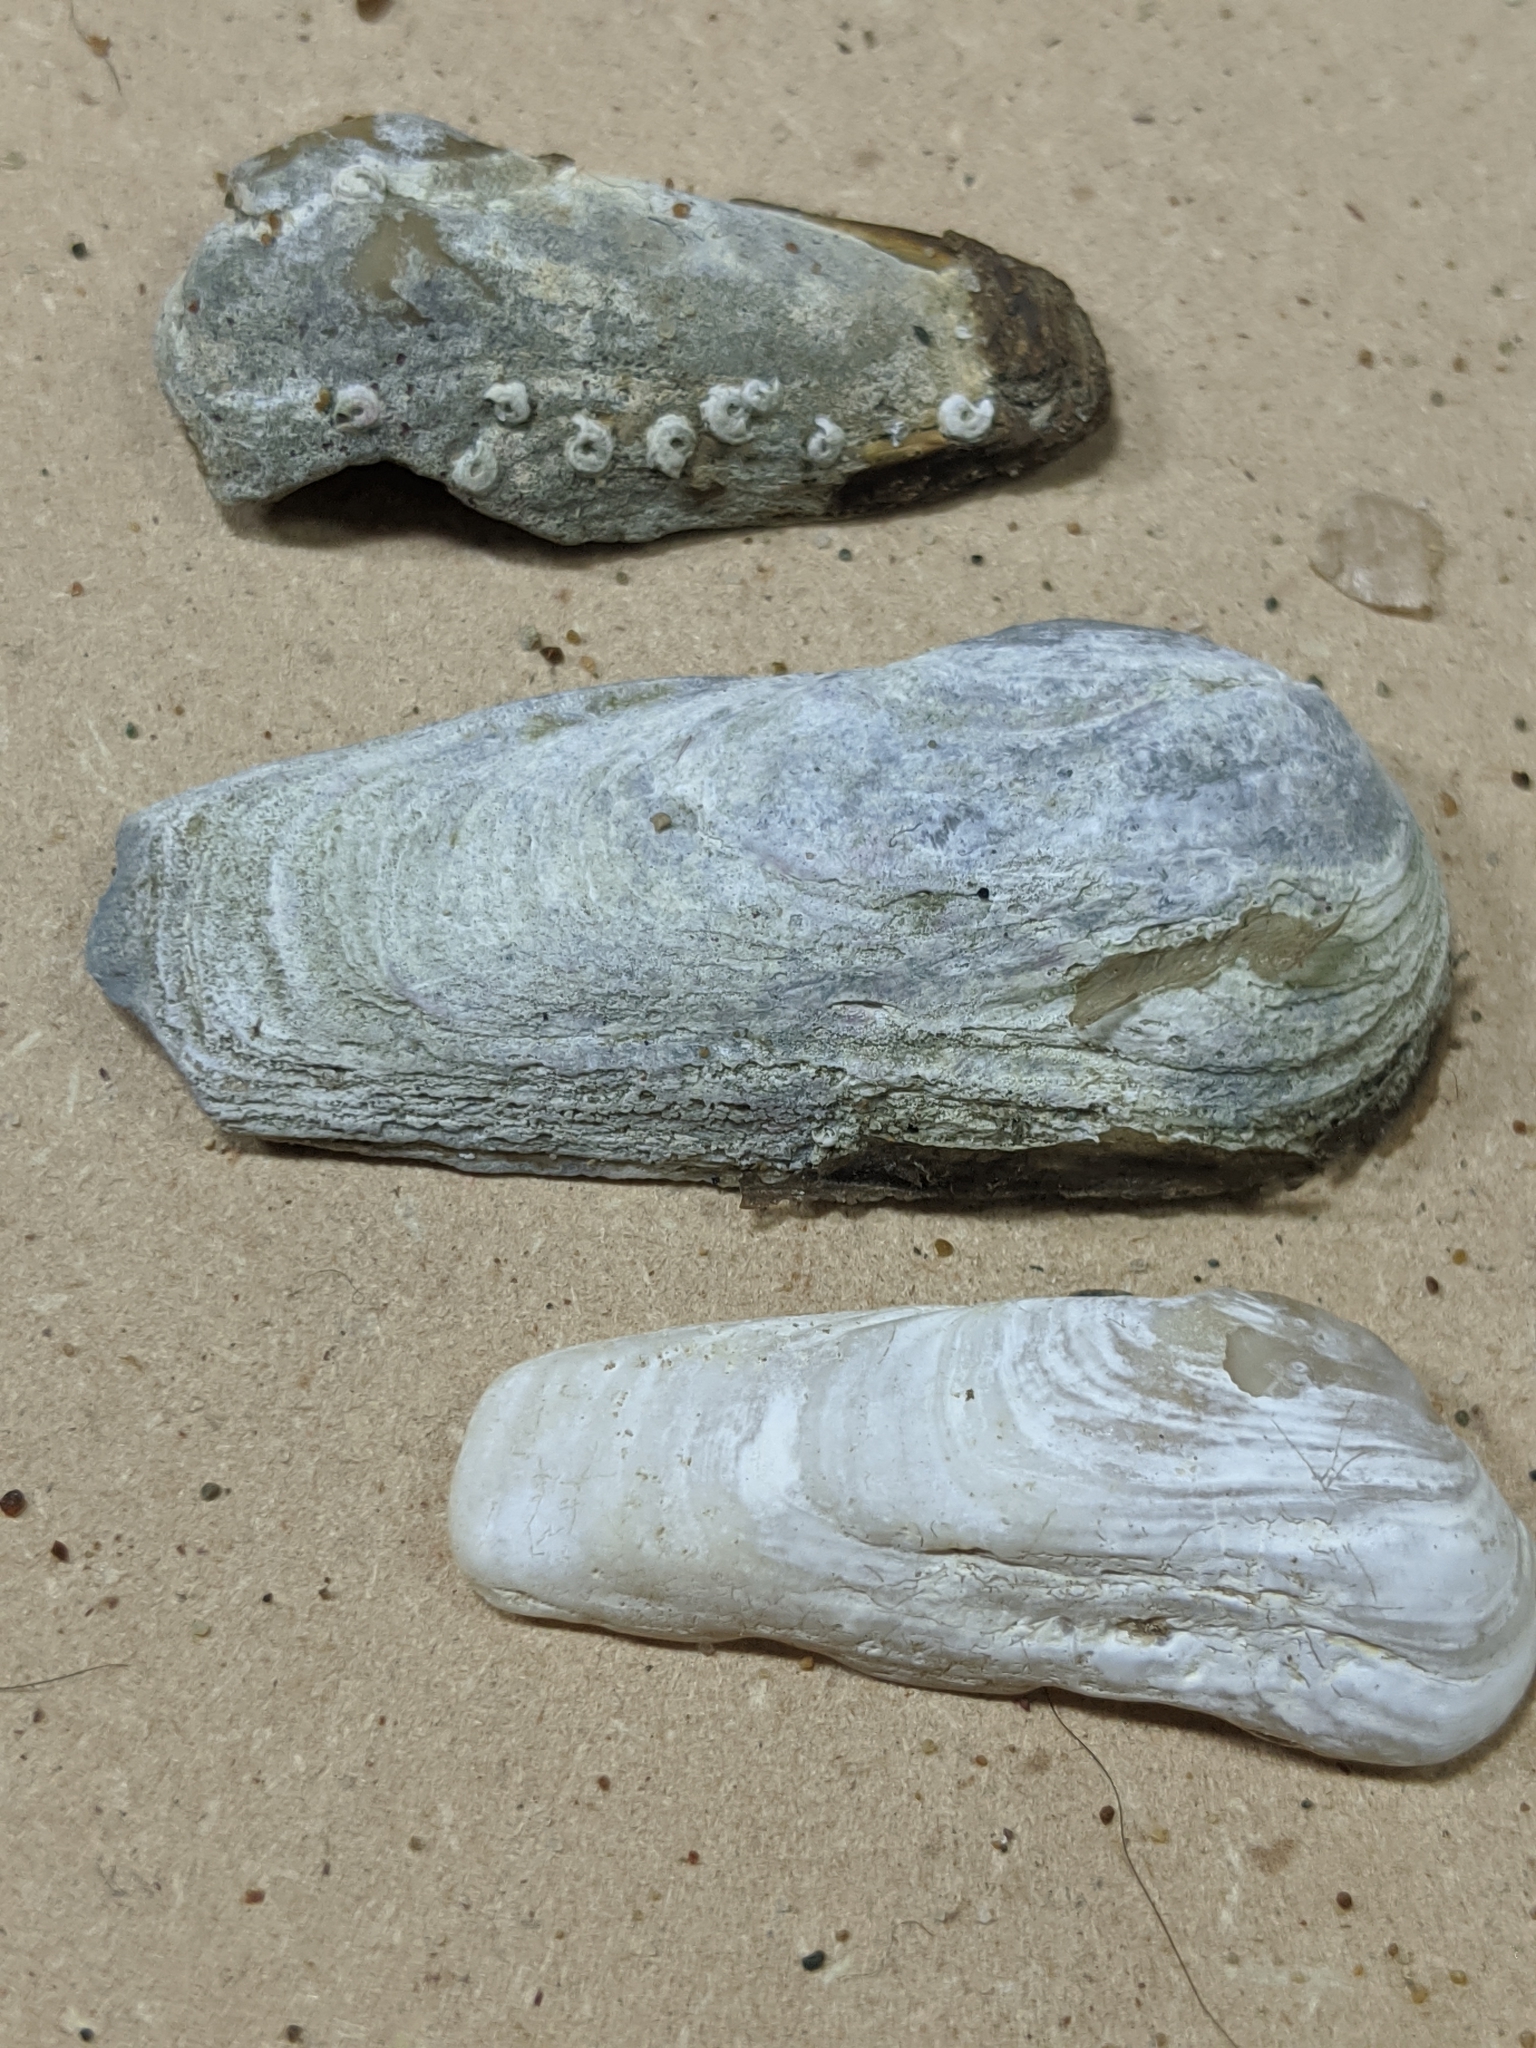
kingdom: Animalia
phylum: Mollusca
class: Bivalvia
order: Adapedonta
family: Hiatellidae
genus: Hiatella
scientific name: Hiatella arctica
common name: Arctic hiatella
